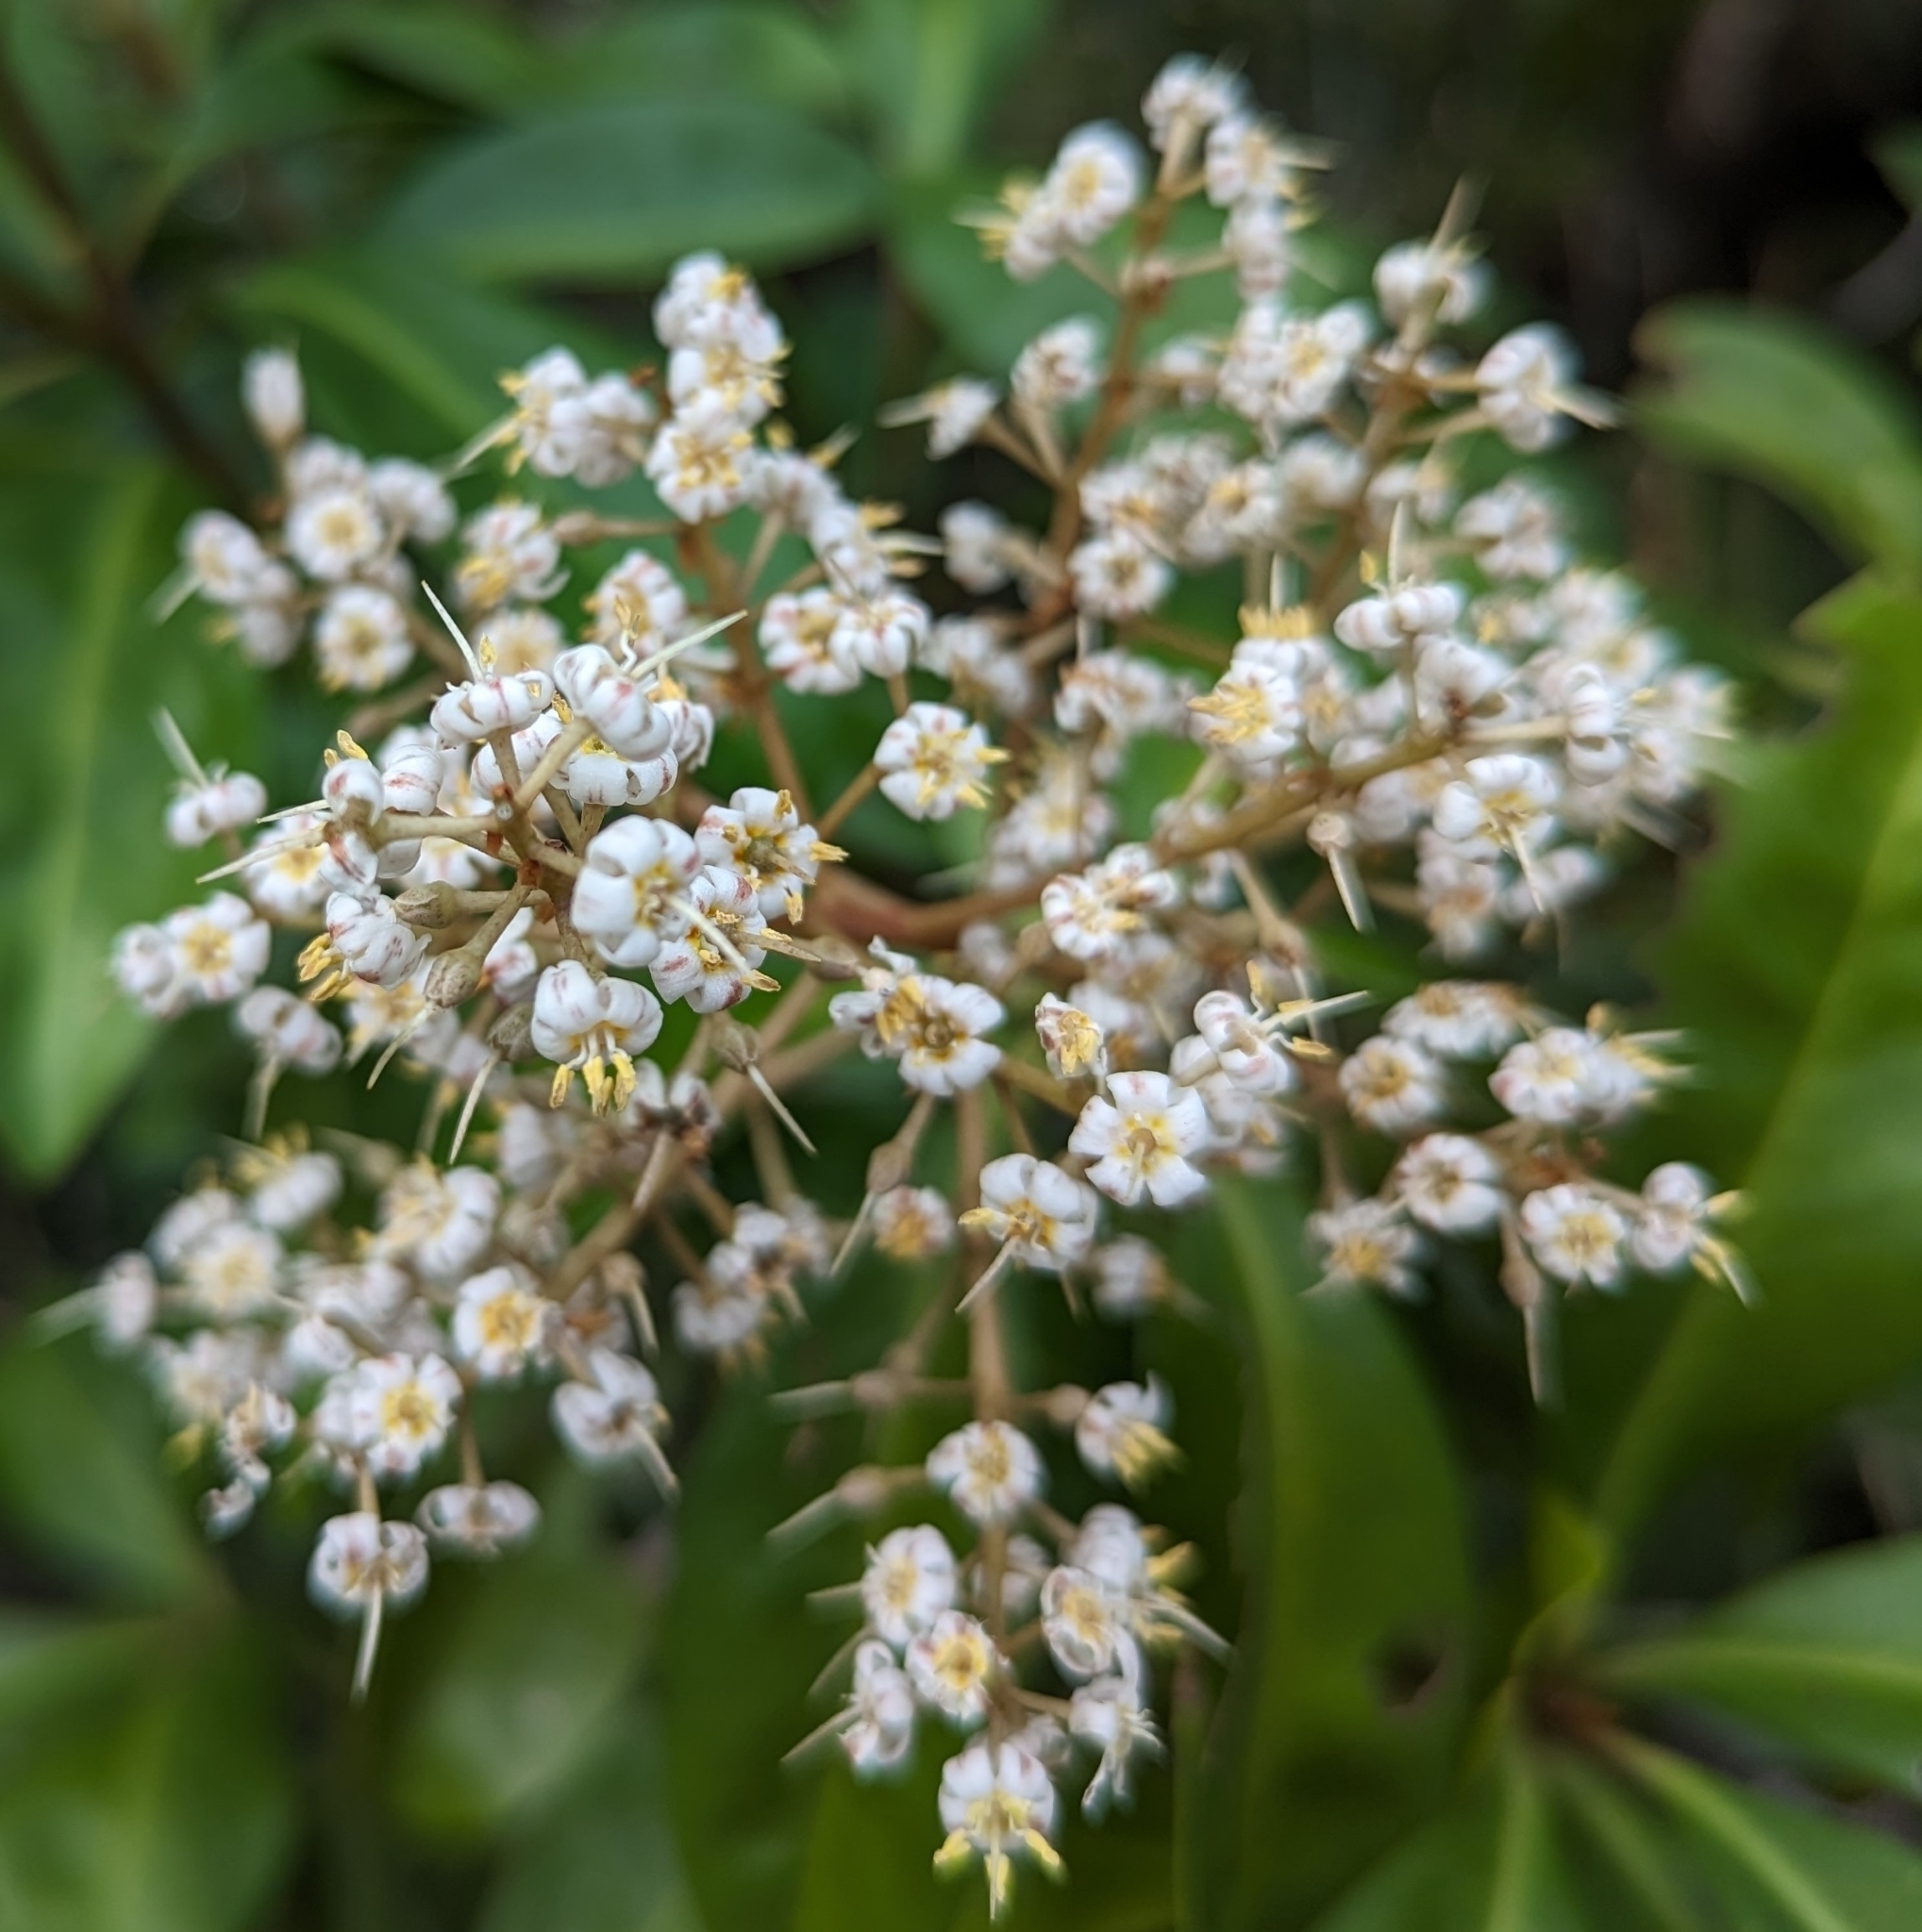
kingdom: Plantae
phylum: Tracheophyta
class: Magnoliopsida
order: Ericales
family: Primulaceae
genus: Ardisia
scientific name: Ardisia escallonioides
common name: Island marlberry
